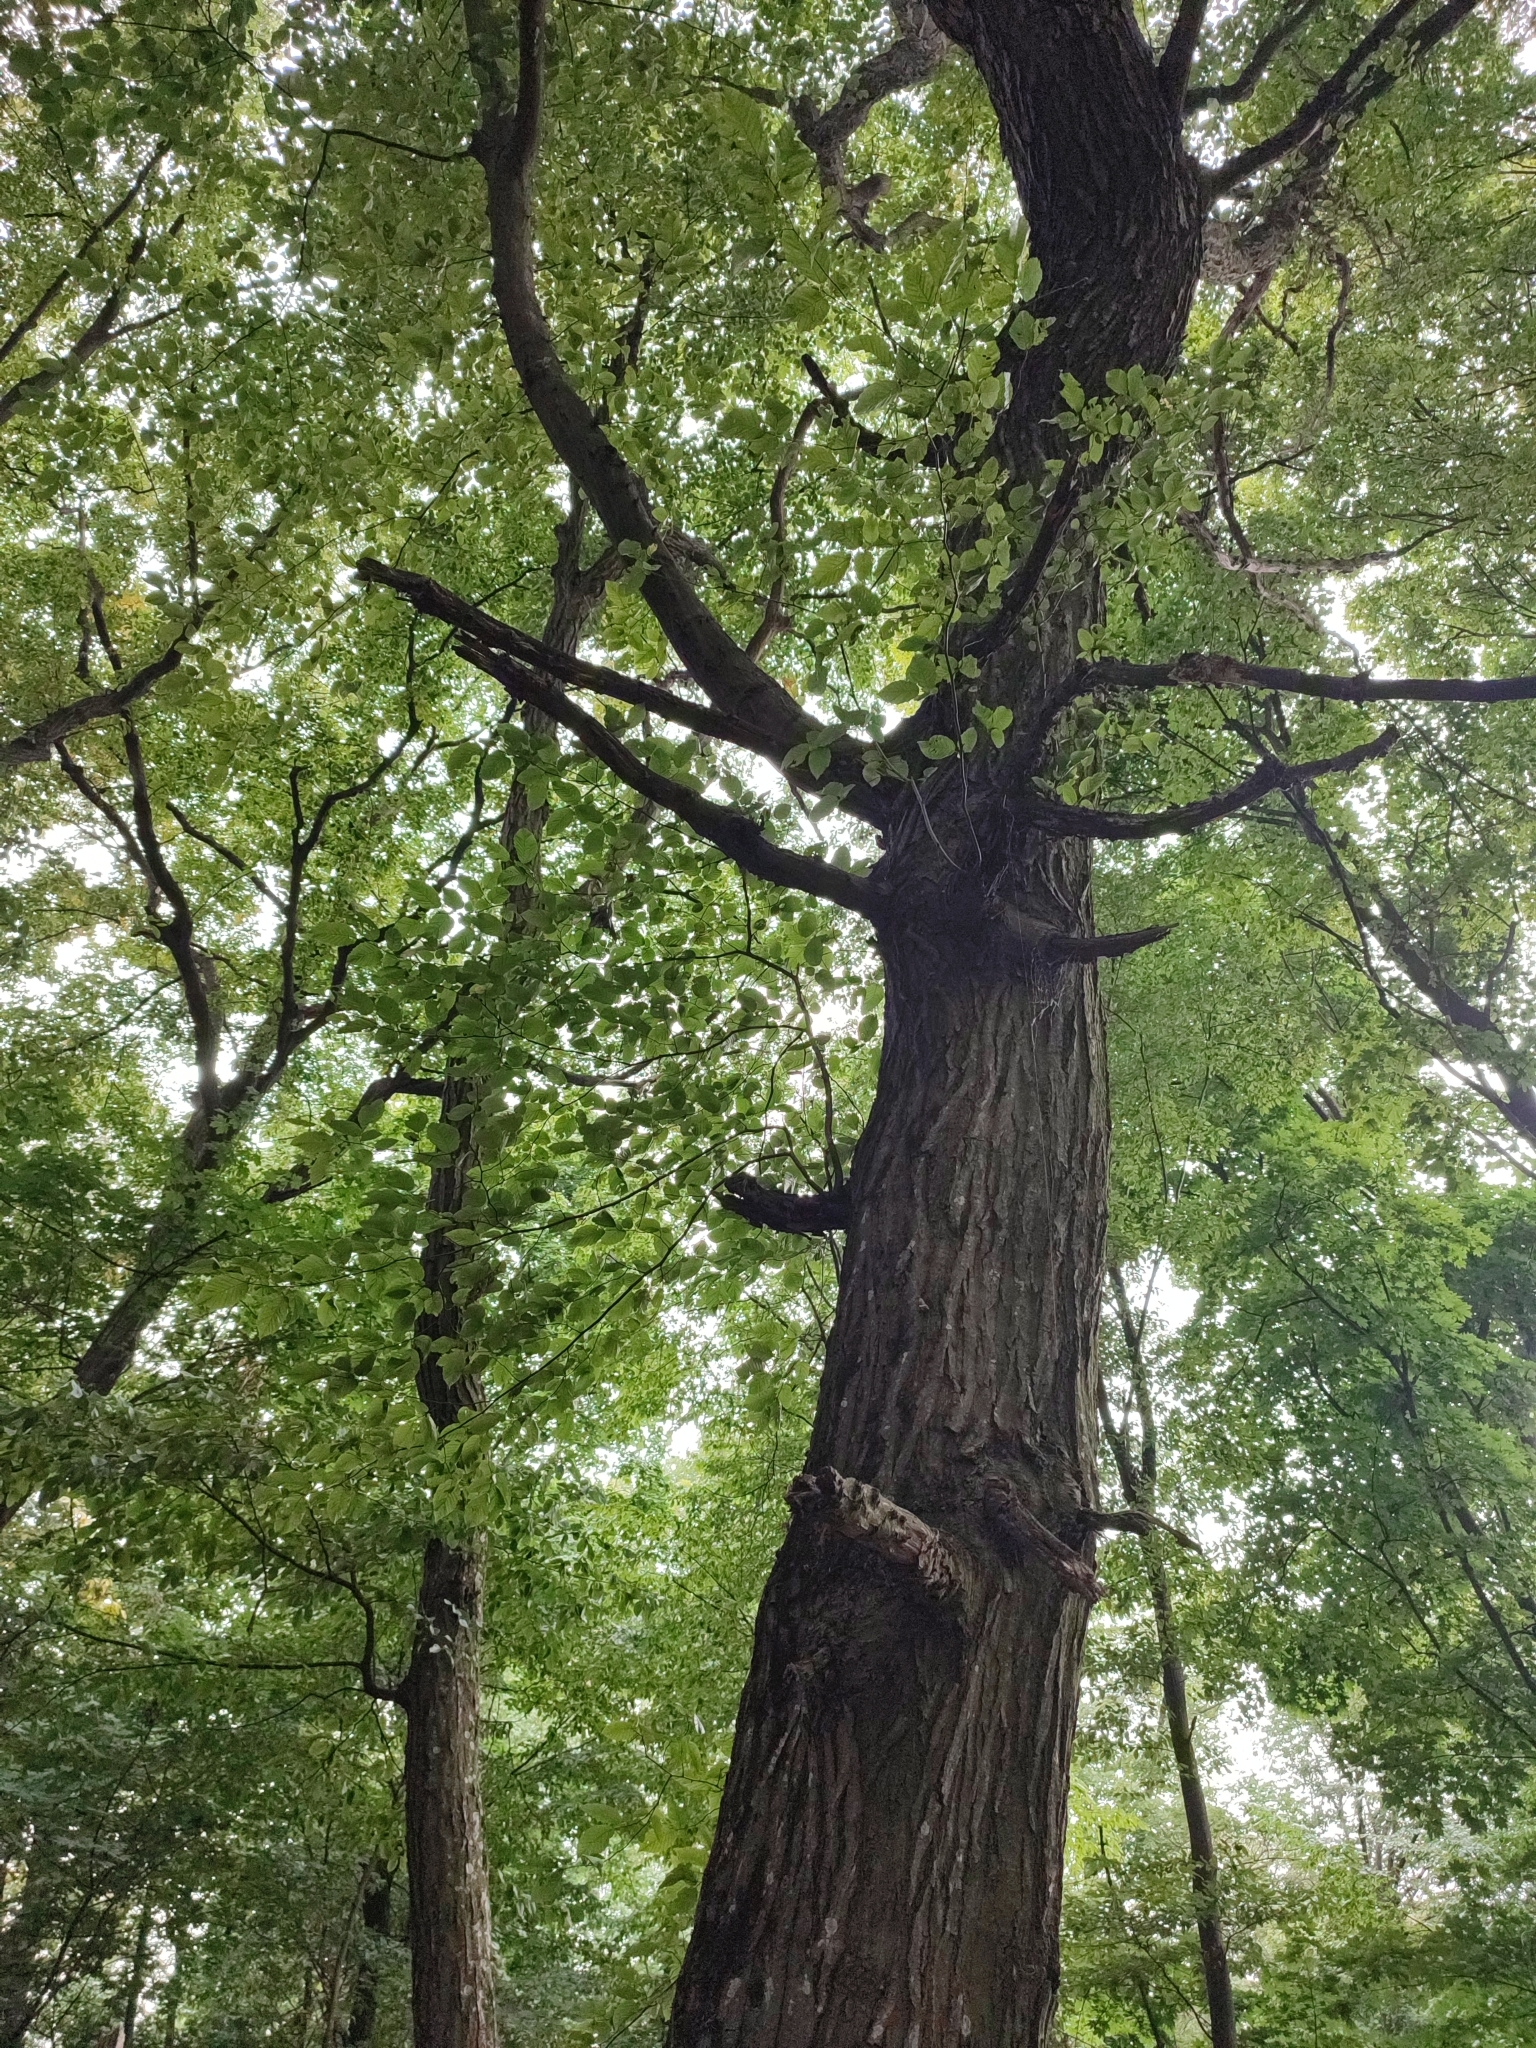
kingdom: Plantae
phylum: Tracheophyta
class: Magnoliopsida
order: Fagales
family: Betulaceae
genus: Carpinus
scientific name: Carpinus betulus
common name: Hornbeam
